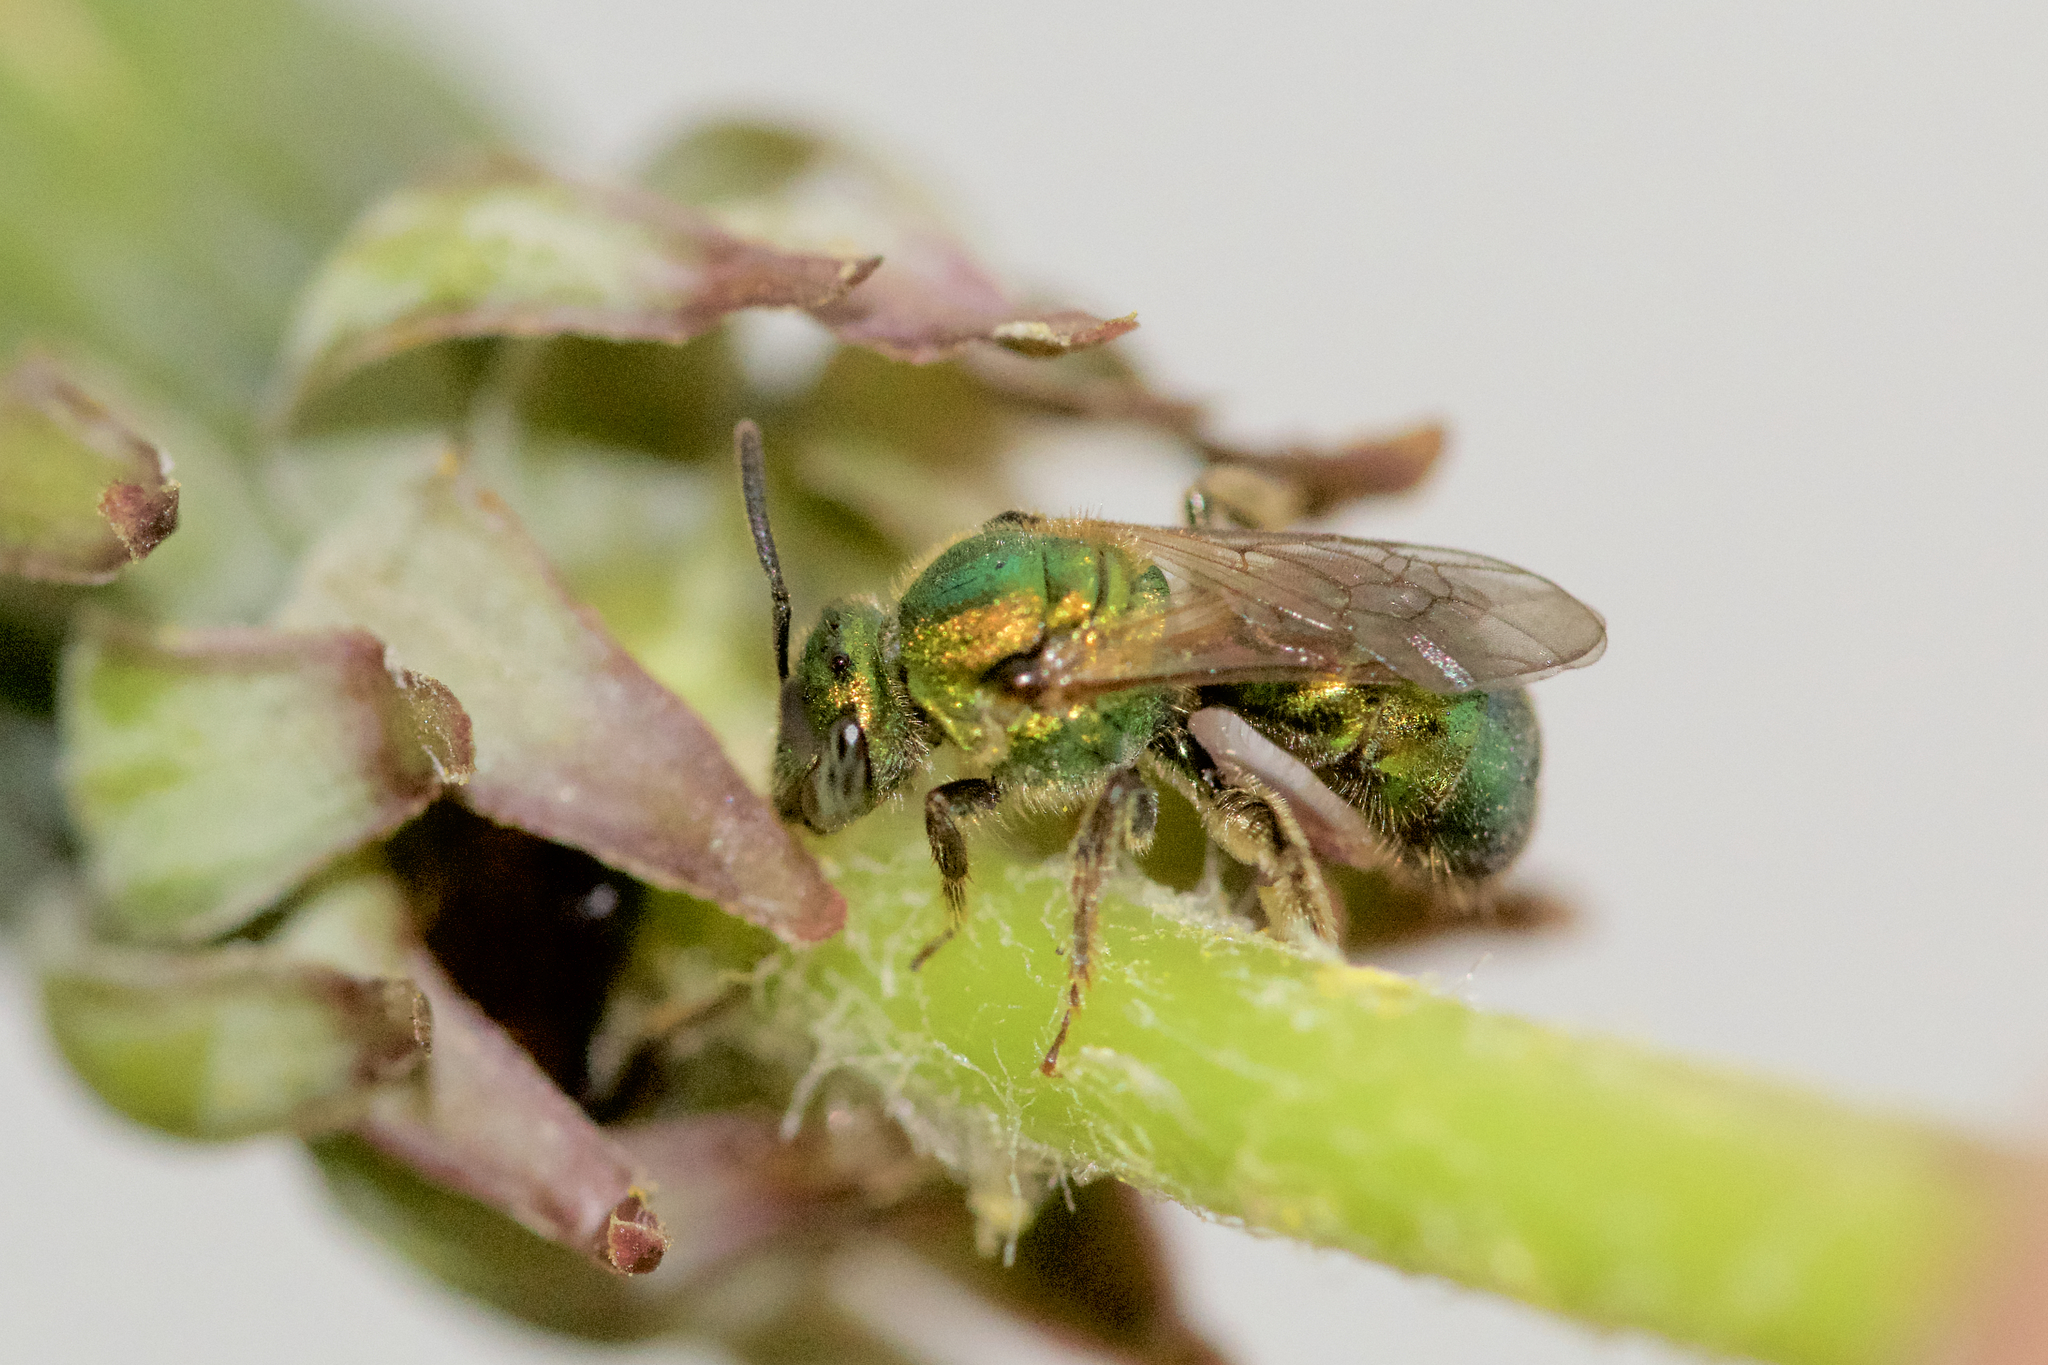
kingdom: Animalia
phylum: Arthropoda
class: Insecta
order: Hymenoptera
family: Halictidae
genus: Augochlorella
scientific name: Augochlorella aurata
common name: Golden sweat bee
